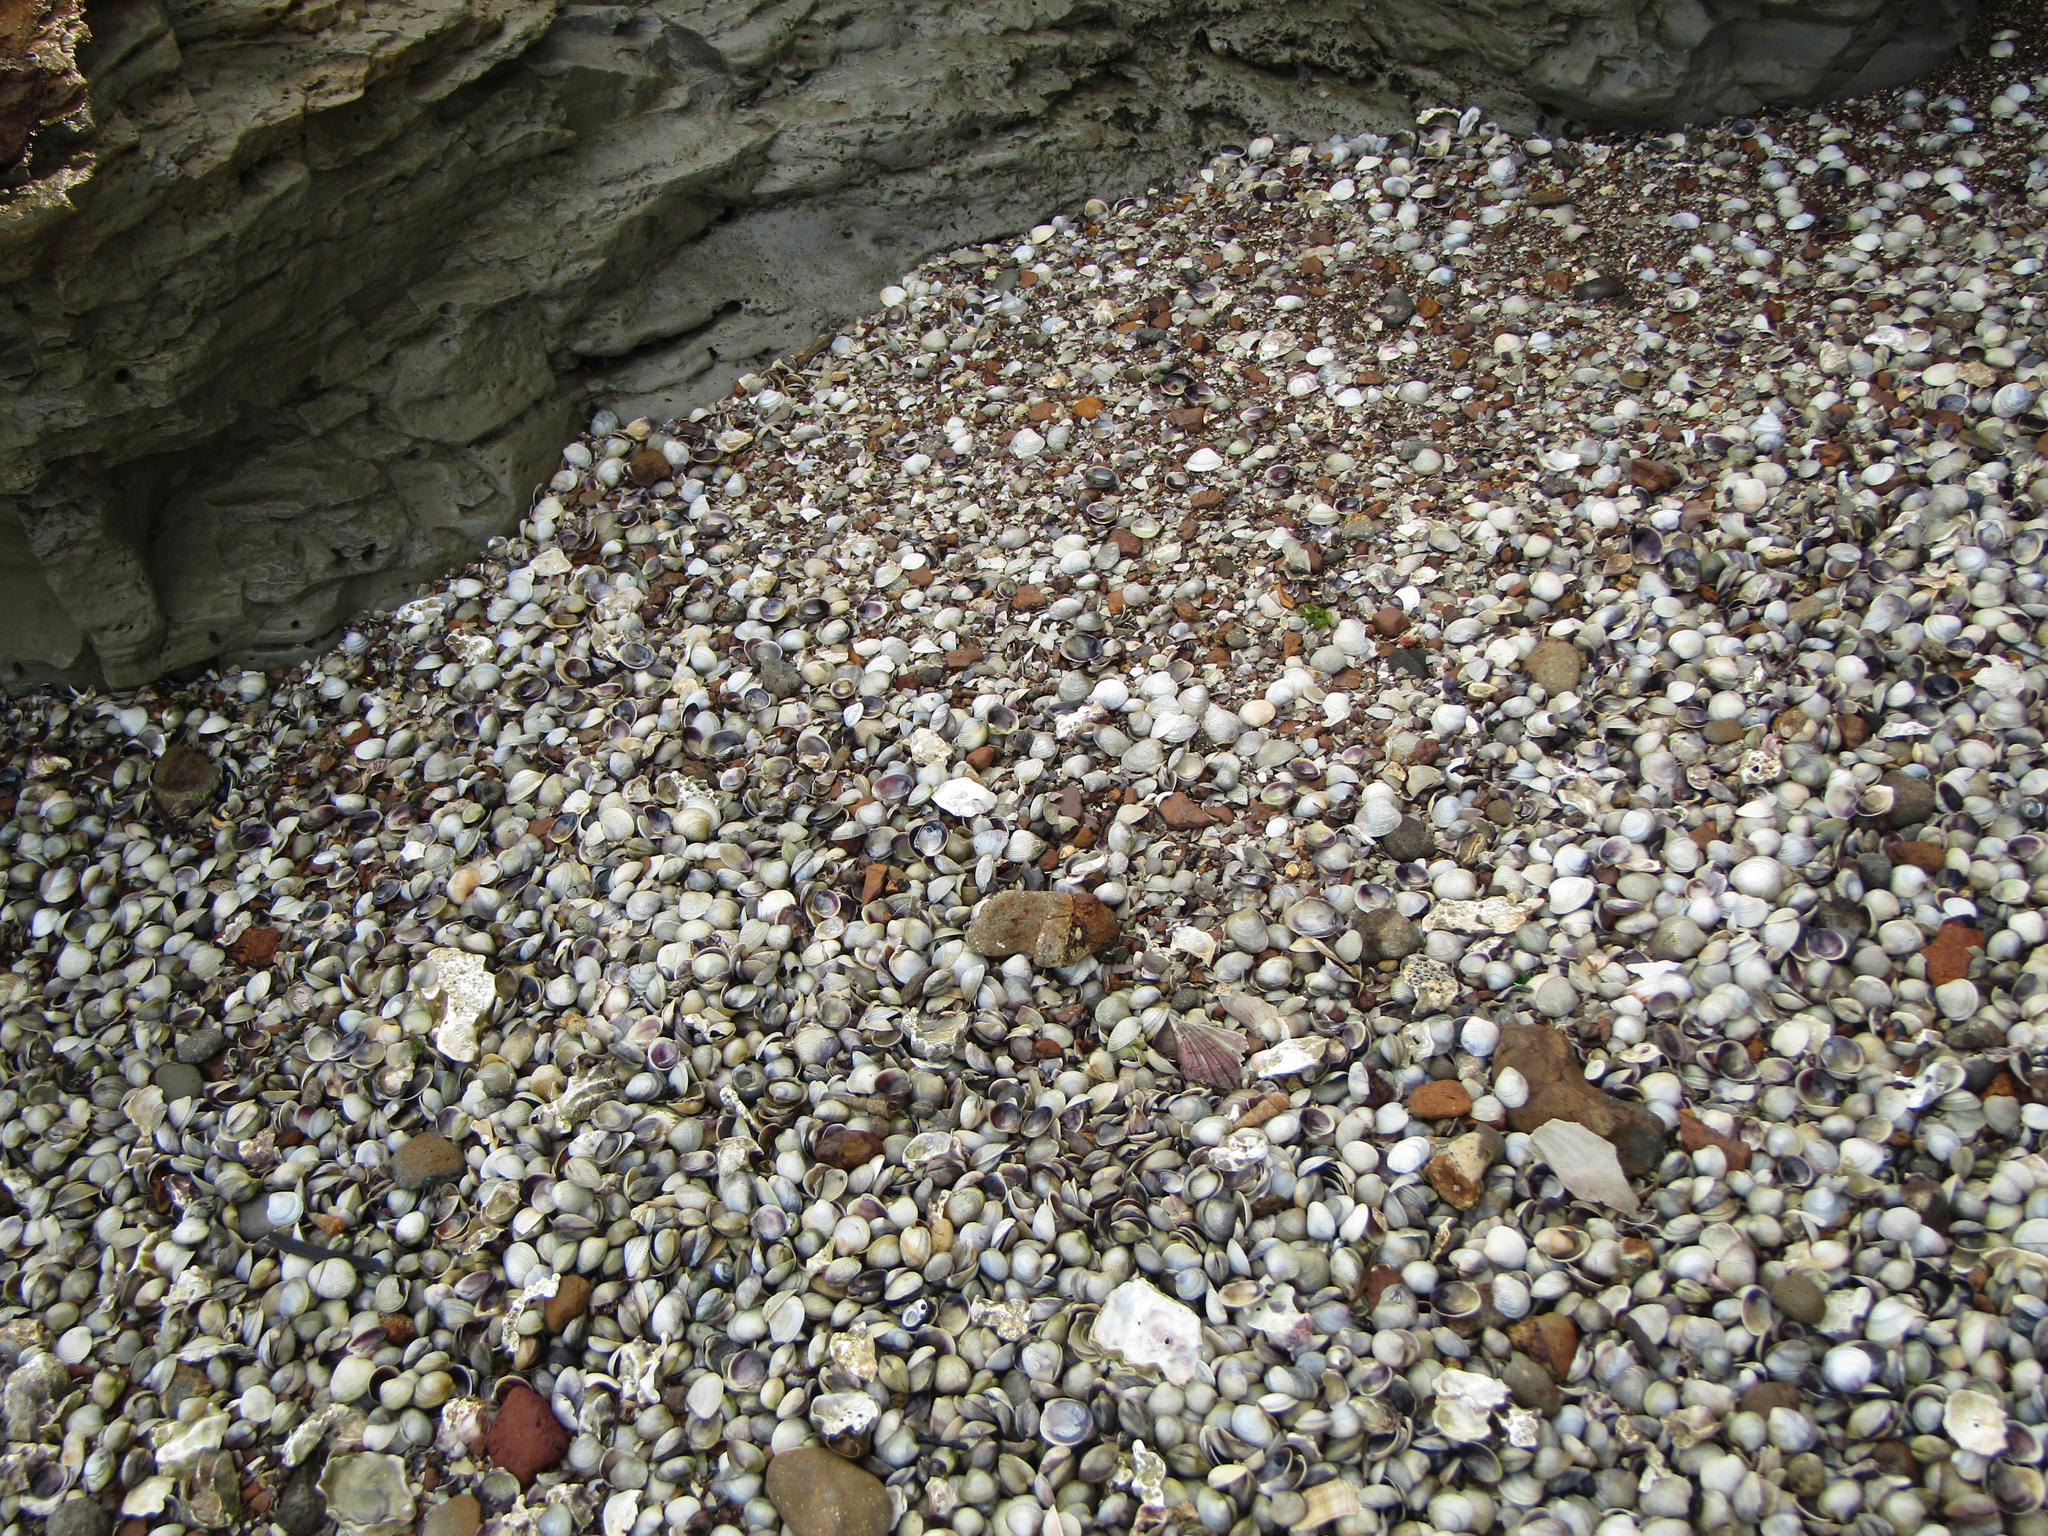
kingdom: Animalia
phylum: Mollusca
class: Bivalvia
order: Venerida
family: Veneridae
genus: Austrovenus
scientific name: Austrovenus stutchburyi
